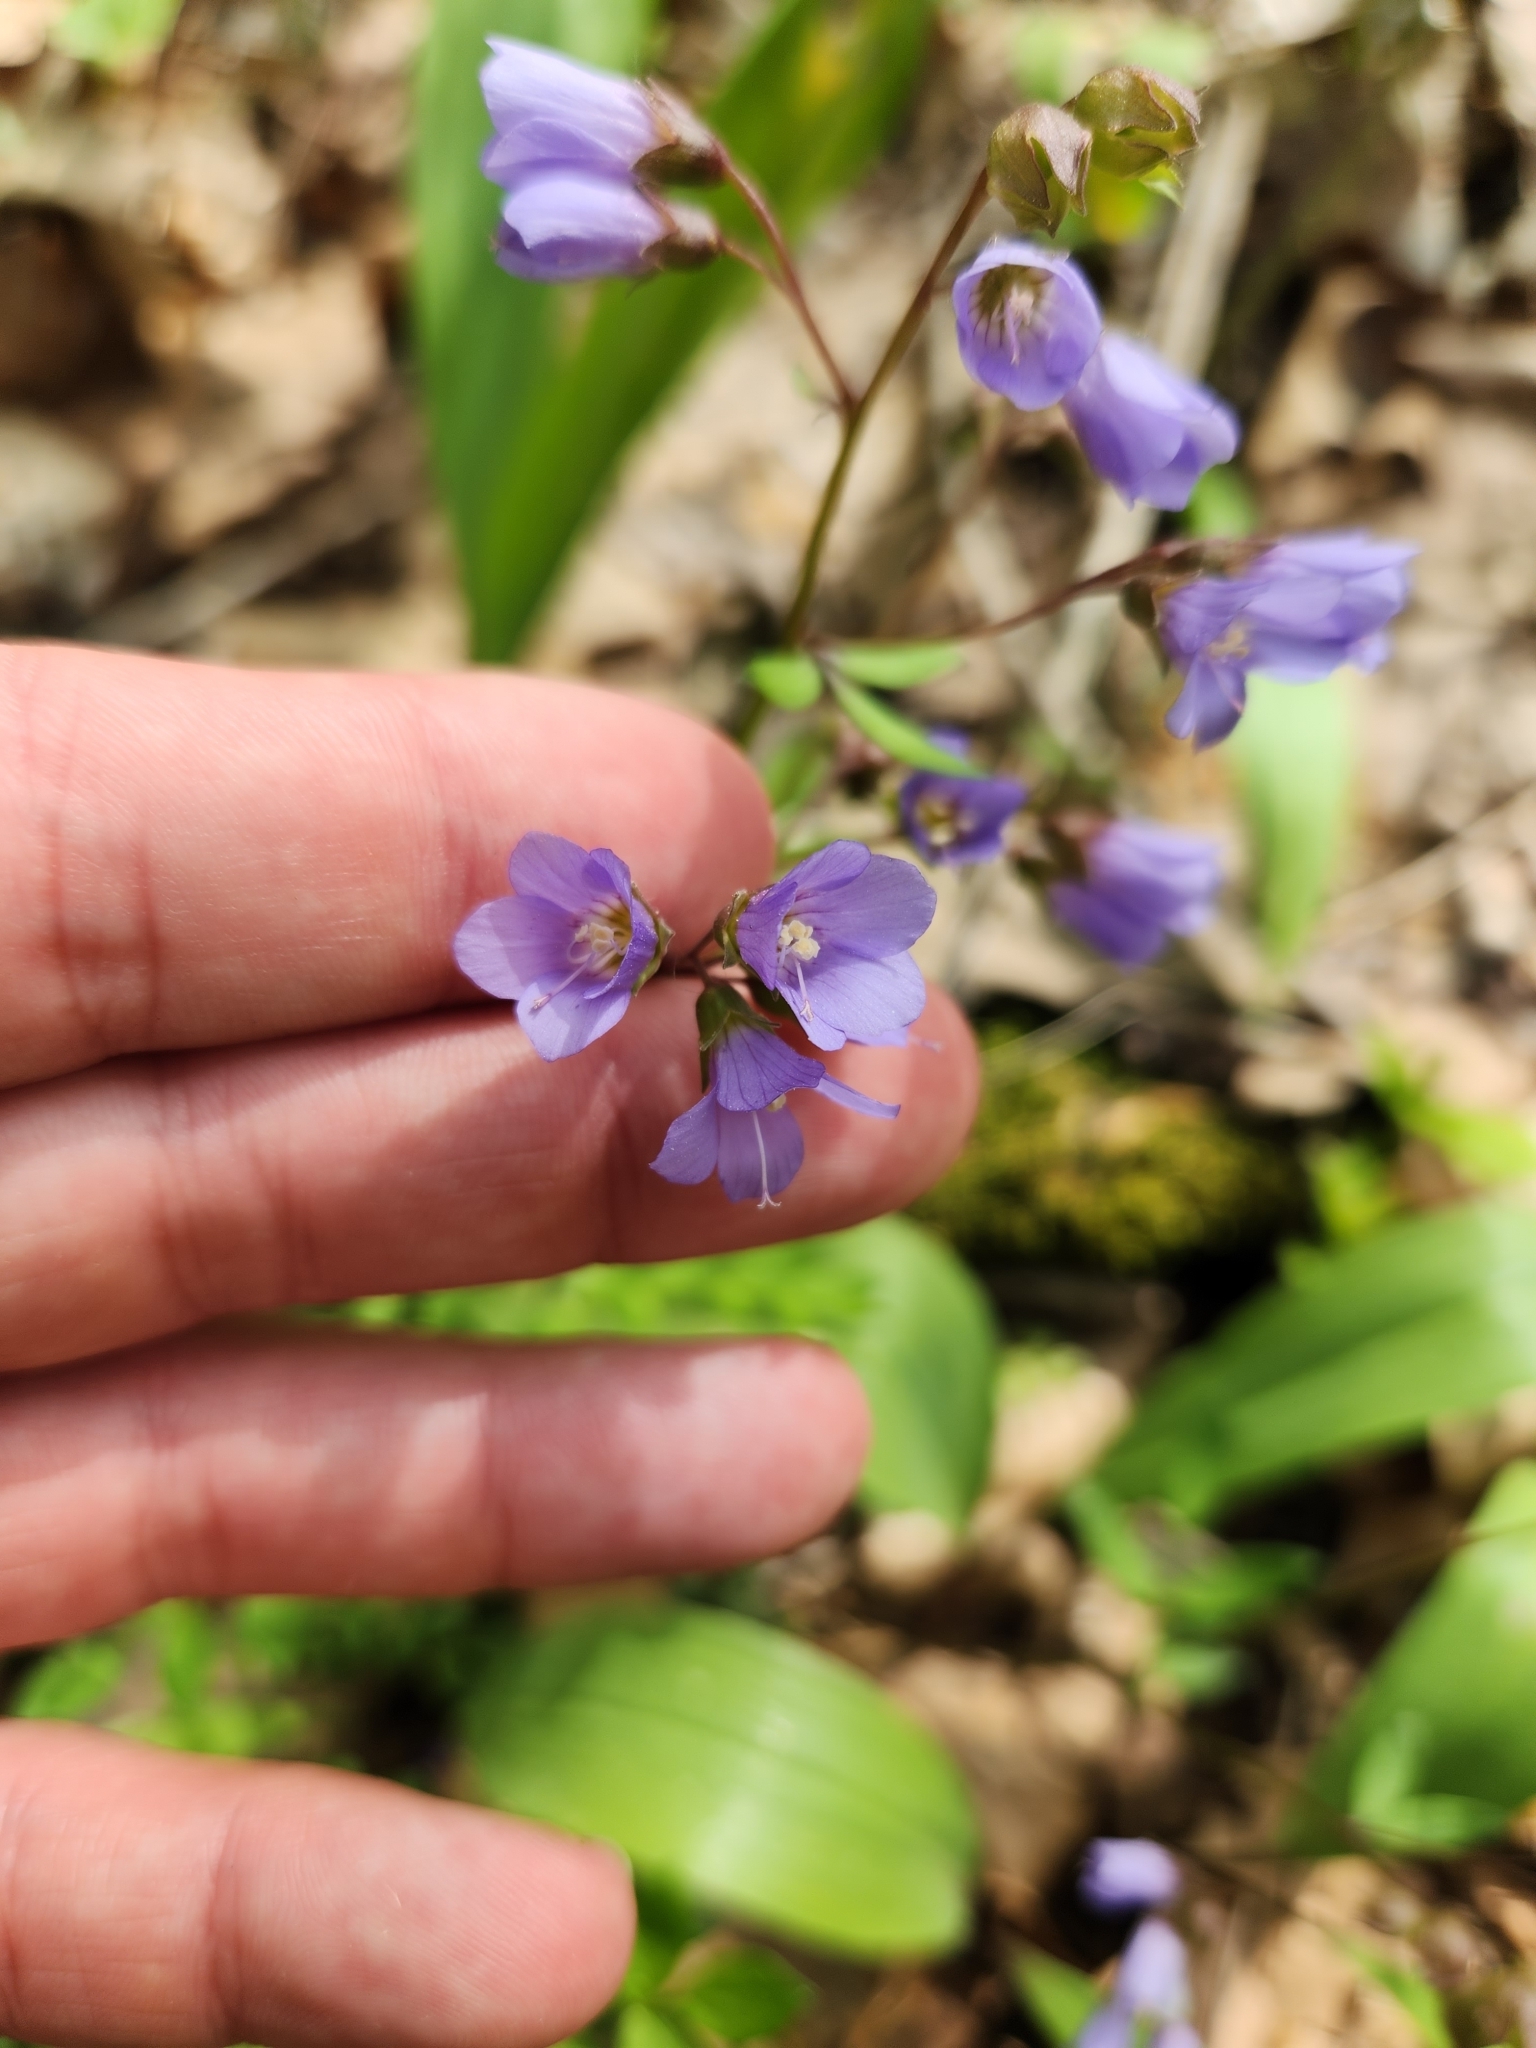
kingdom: Plantae
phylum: Tracheophyta
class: Magnoliopsida
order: Ericales
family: Polemoniaceae
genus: Polemonium
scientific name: Polemonium reptans
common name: Creeping jacob's-ladder
